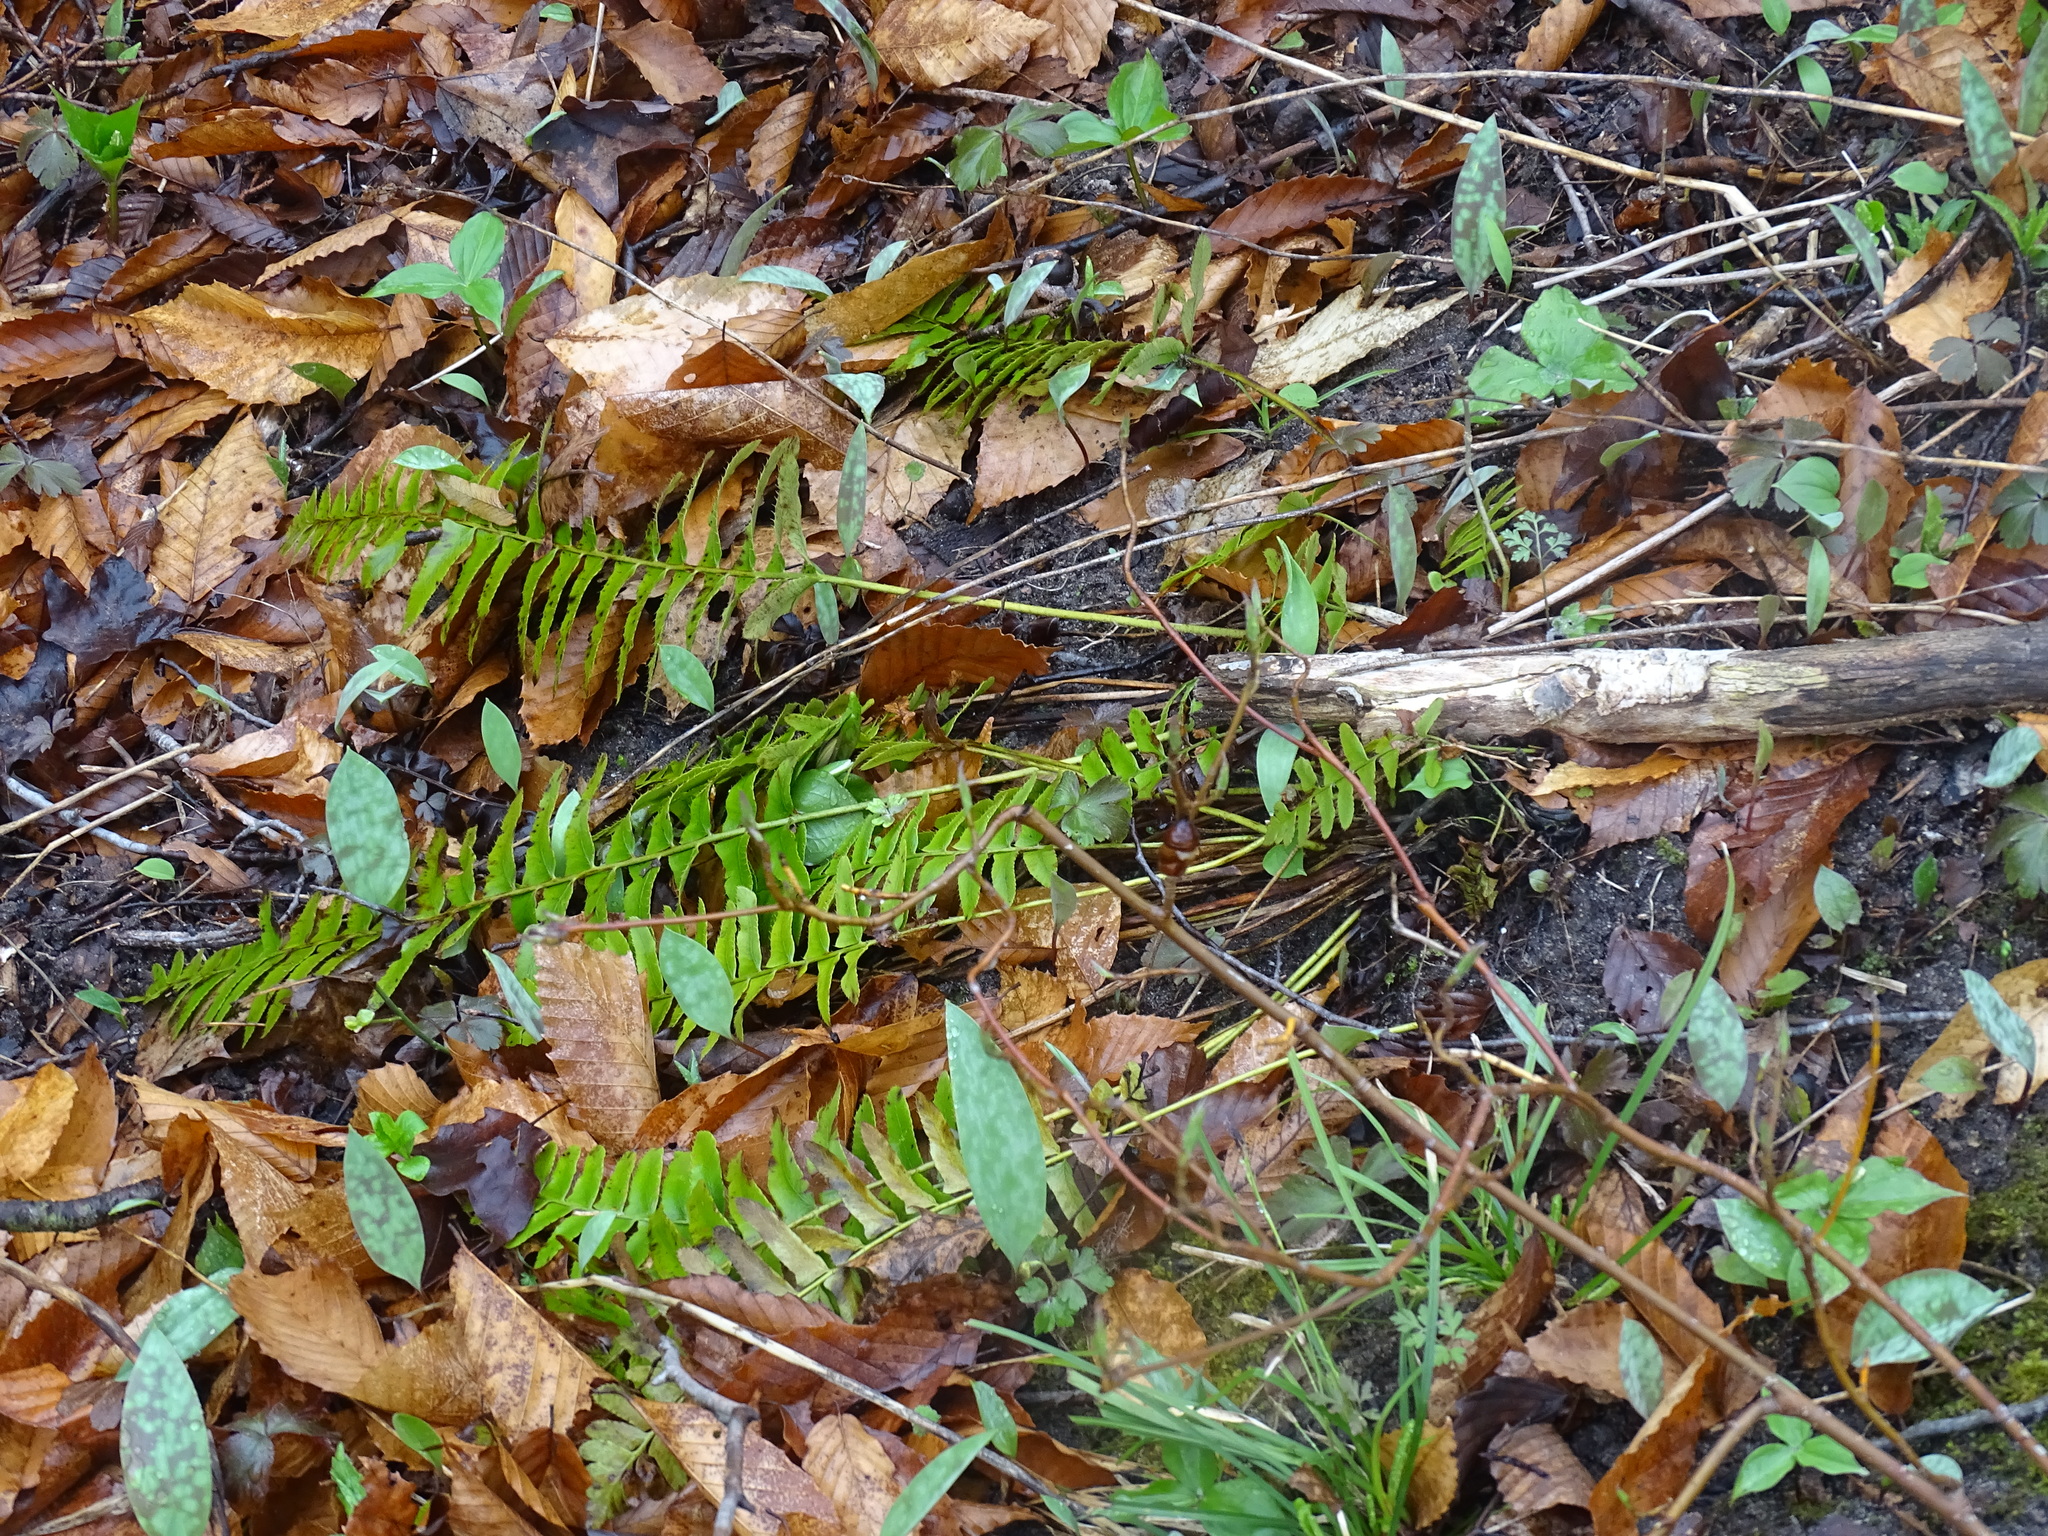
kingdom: Plantae
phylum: Tracheophyta
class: Polypodiopsida
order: Polypodiales
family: Dryopteridaceae
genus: Polystichum
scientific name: Polystichum acrostichoides
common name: Christmas fern
